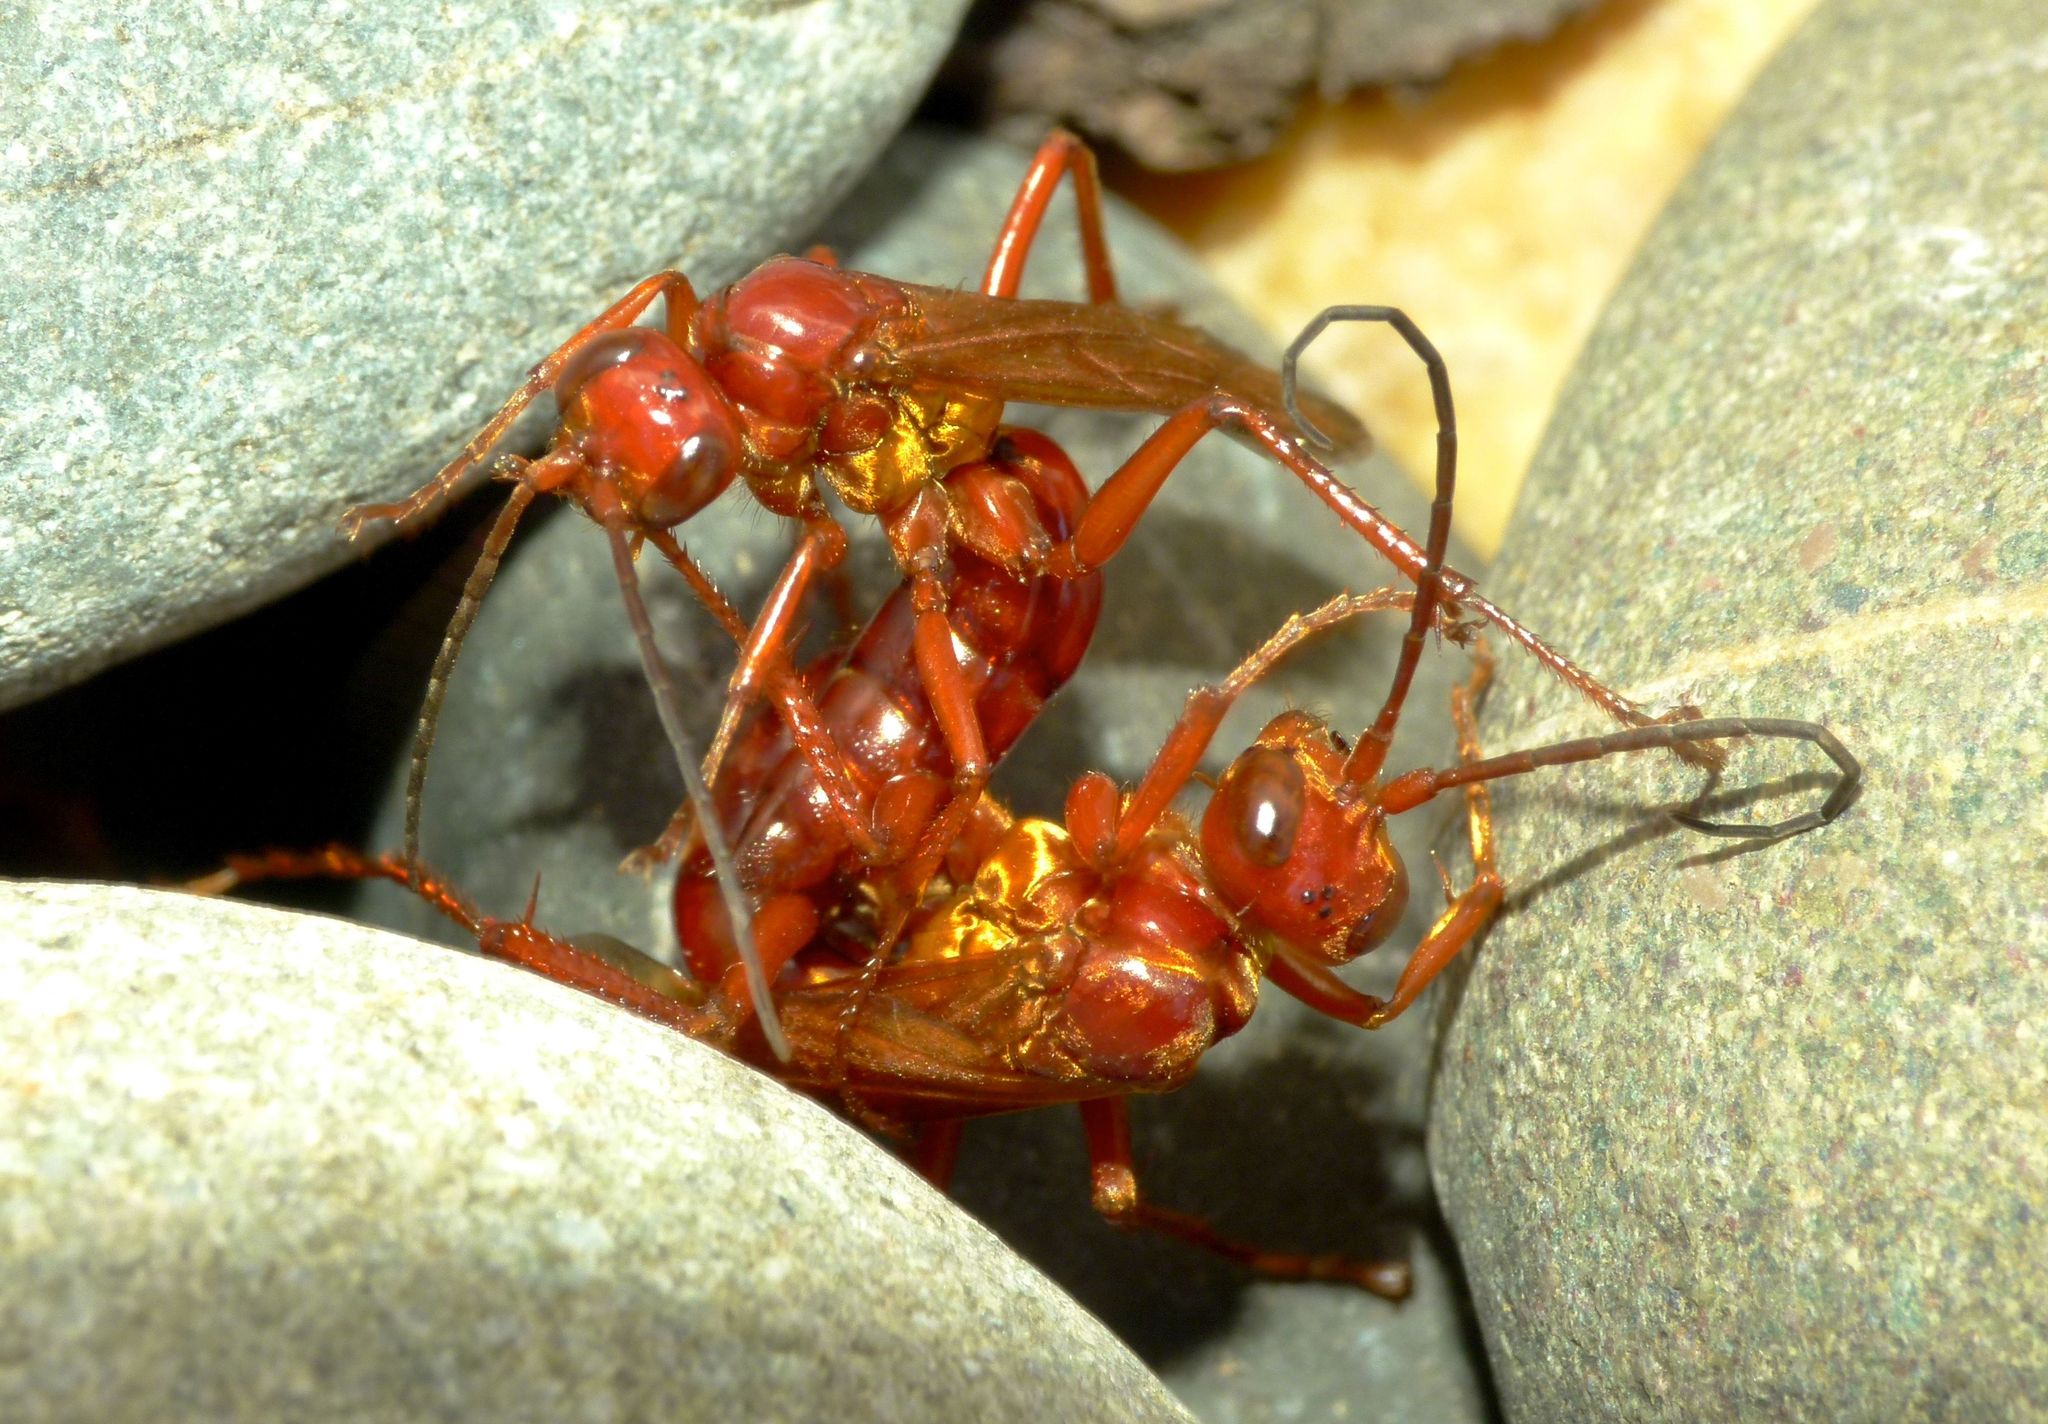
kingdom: Animalia
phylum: Arthropoda
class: Insecta
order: Hymenoptera
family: Pompilidae
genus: Sphictostethus
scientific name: Sphictostethus nitidus
